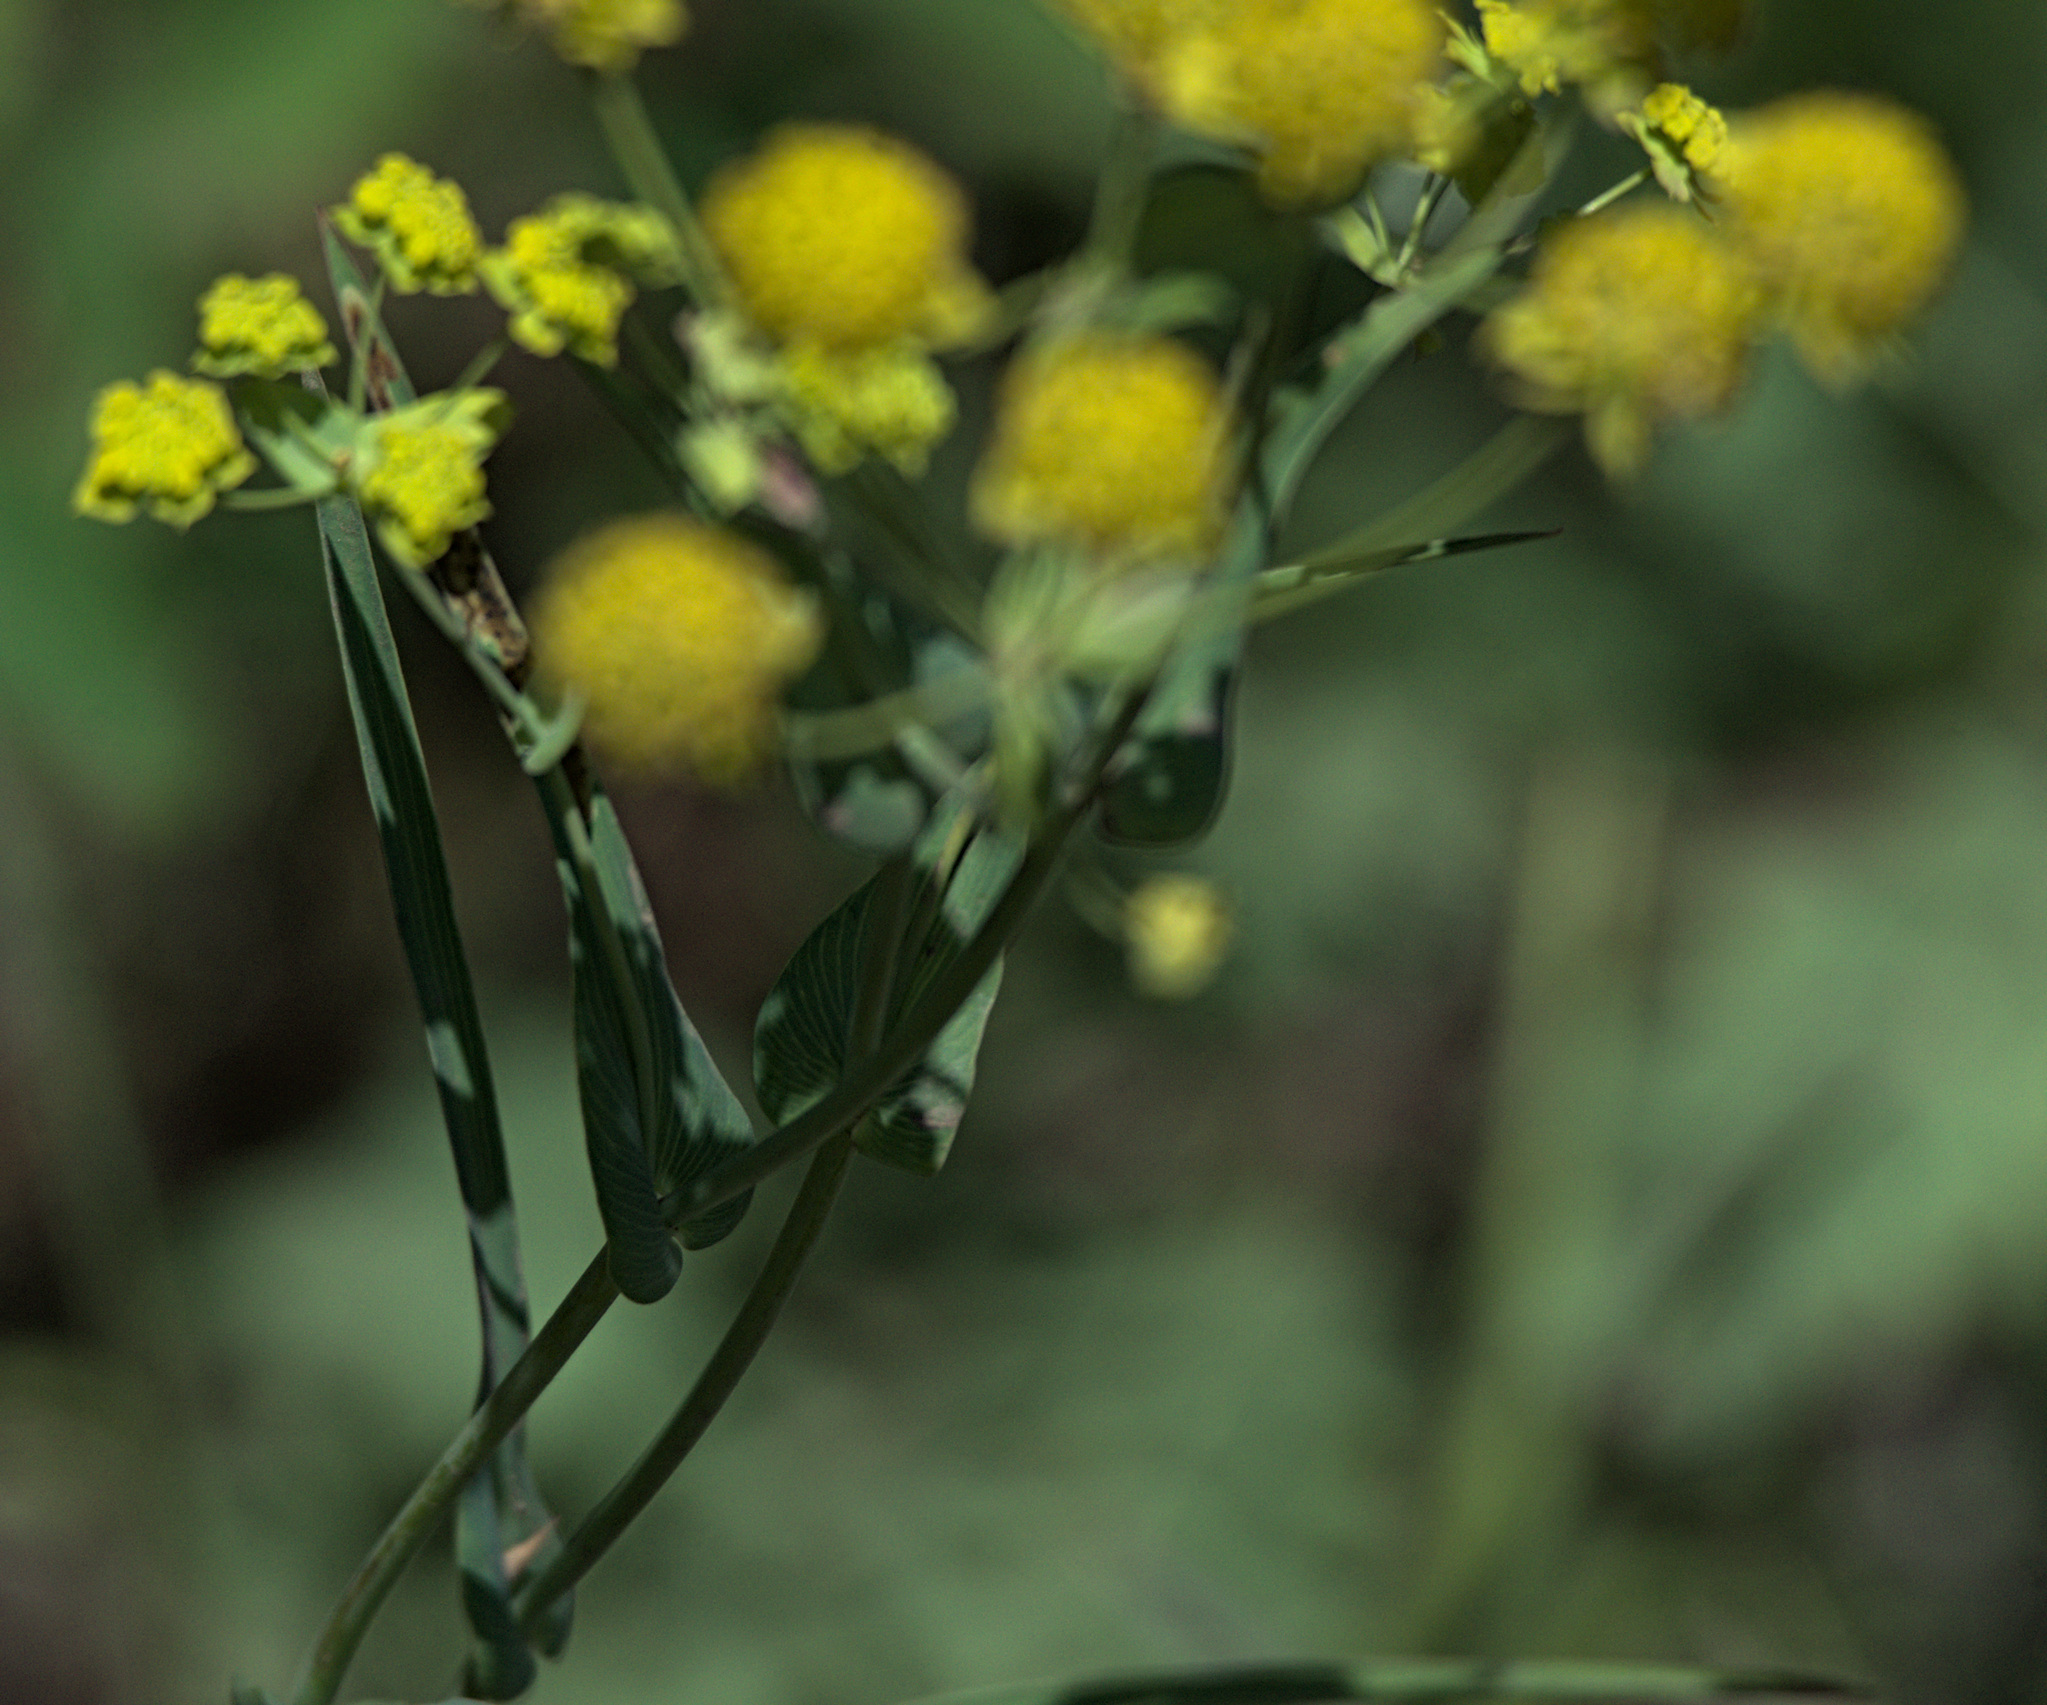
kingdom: Plantae
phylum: Tracheophyta
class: Magnoliopsida
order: Apiales
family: Apiaceae
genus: Bupleurum
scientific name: Bupleurum multinerve
